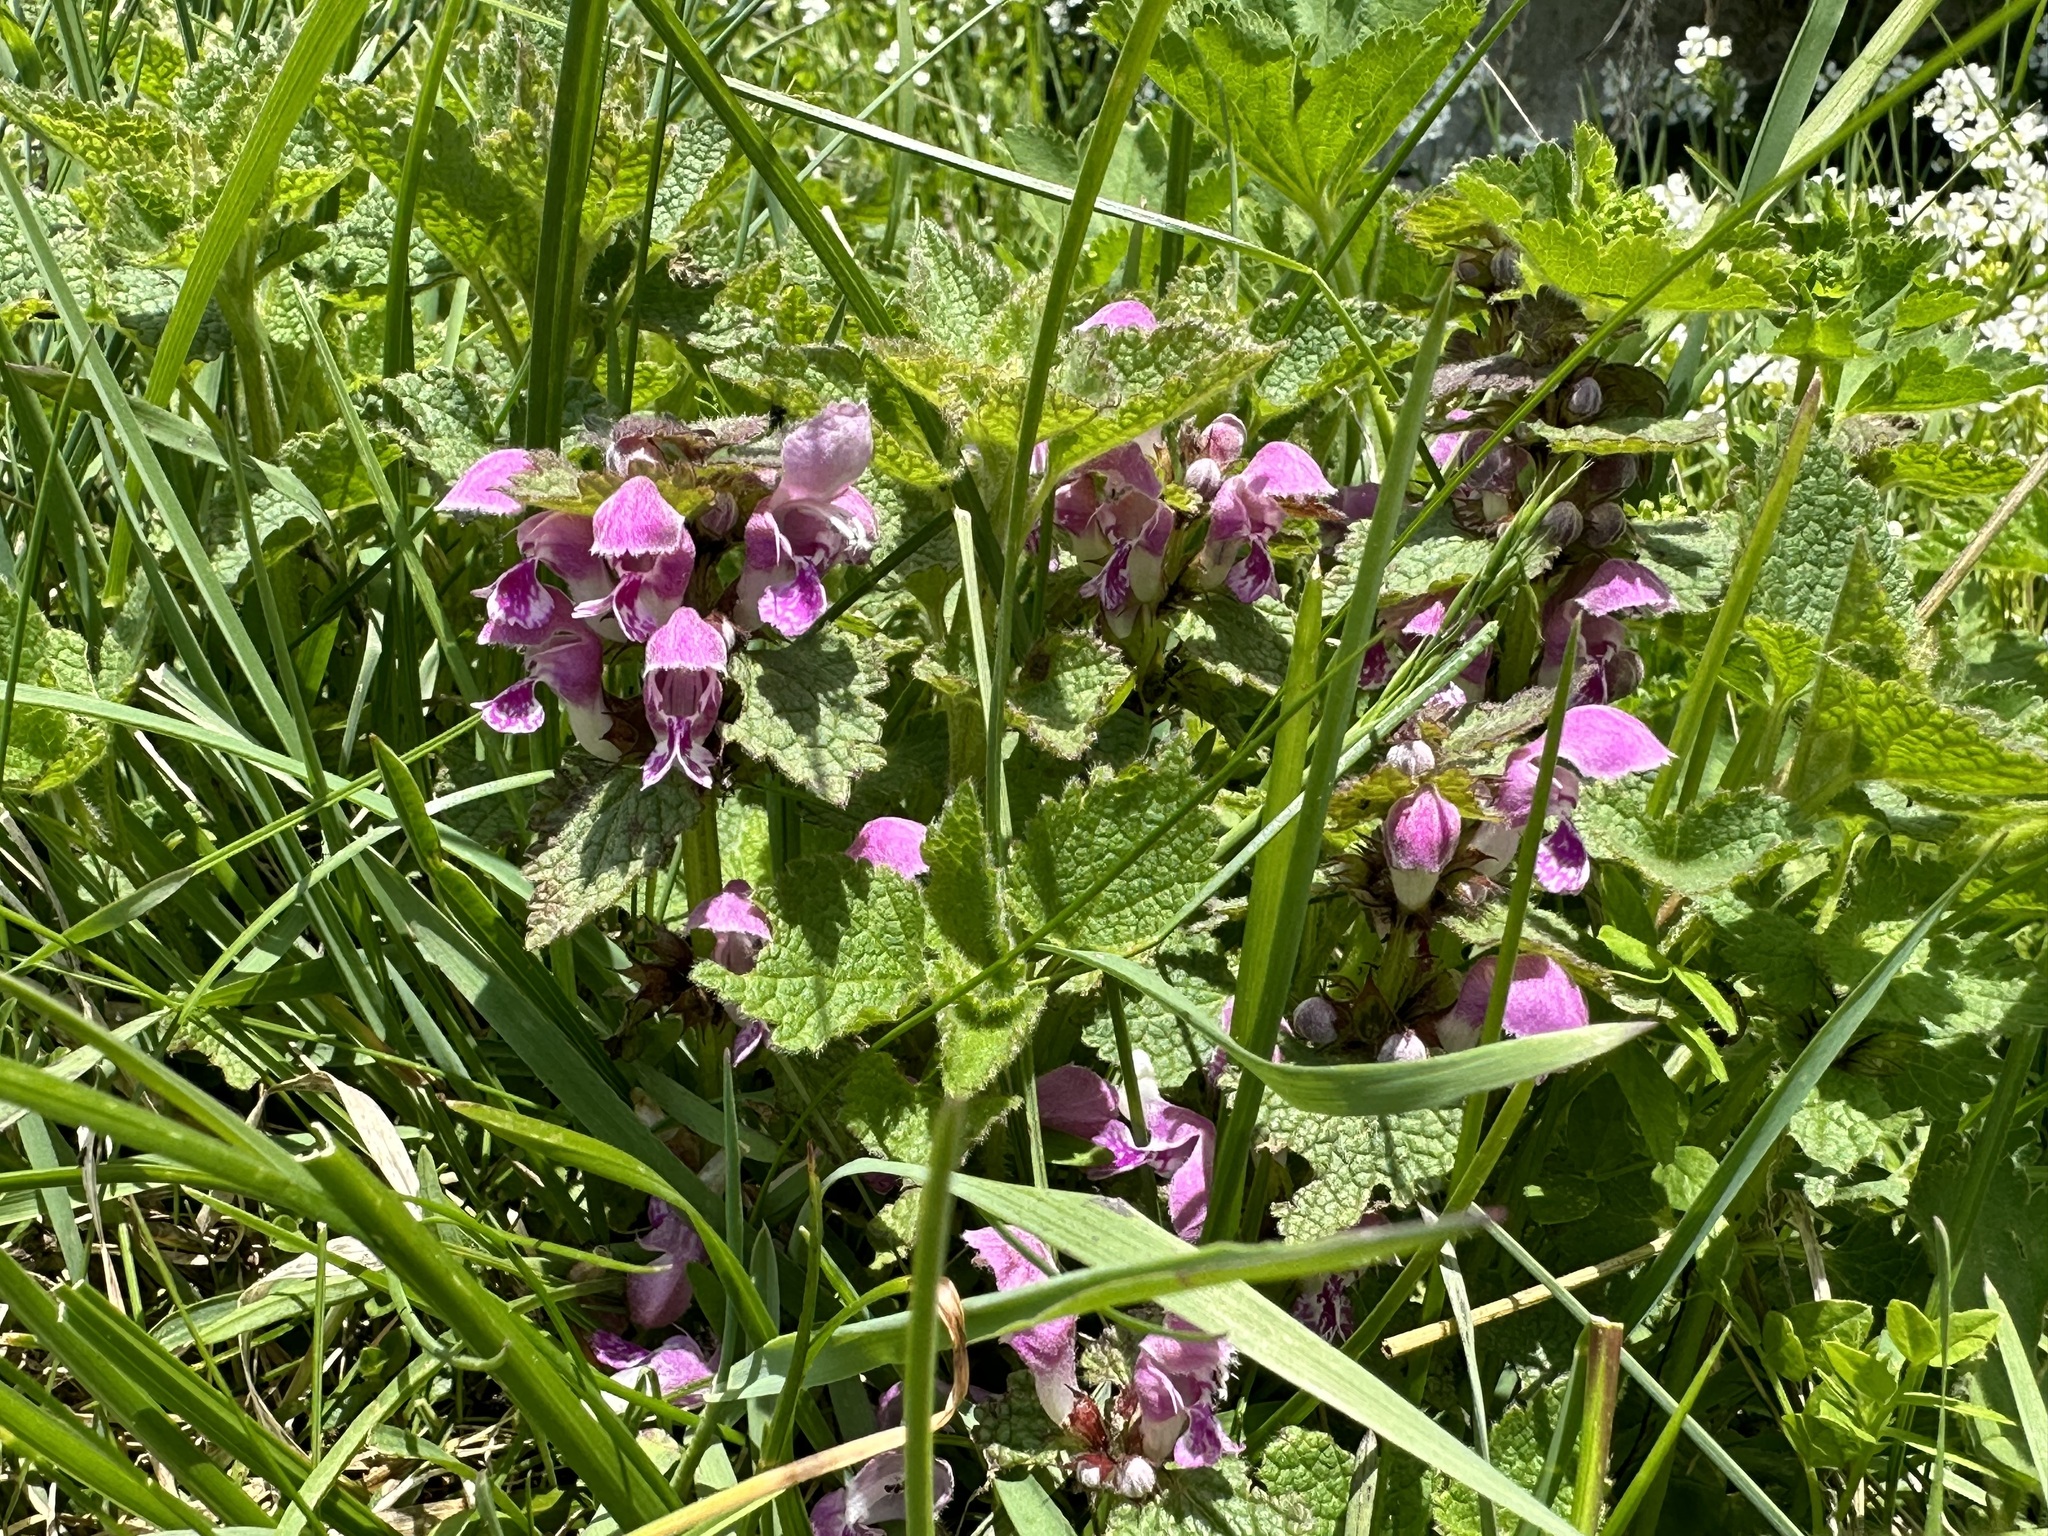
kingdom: Plantae
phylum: Tracheophyta
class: Magnoliopsida
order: Lamiales
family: Lamiaceae
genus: Lamium
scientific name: Lamium maculatum
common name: Spotted dead-nettle
